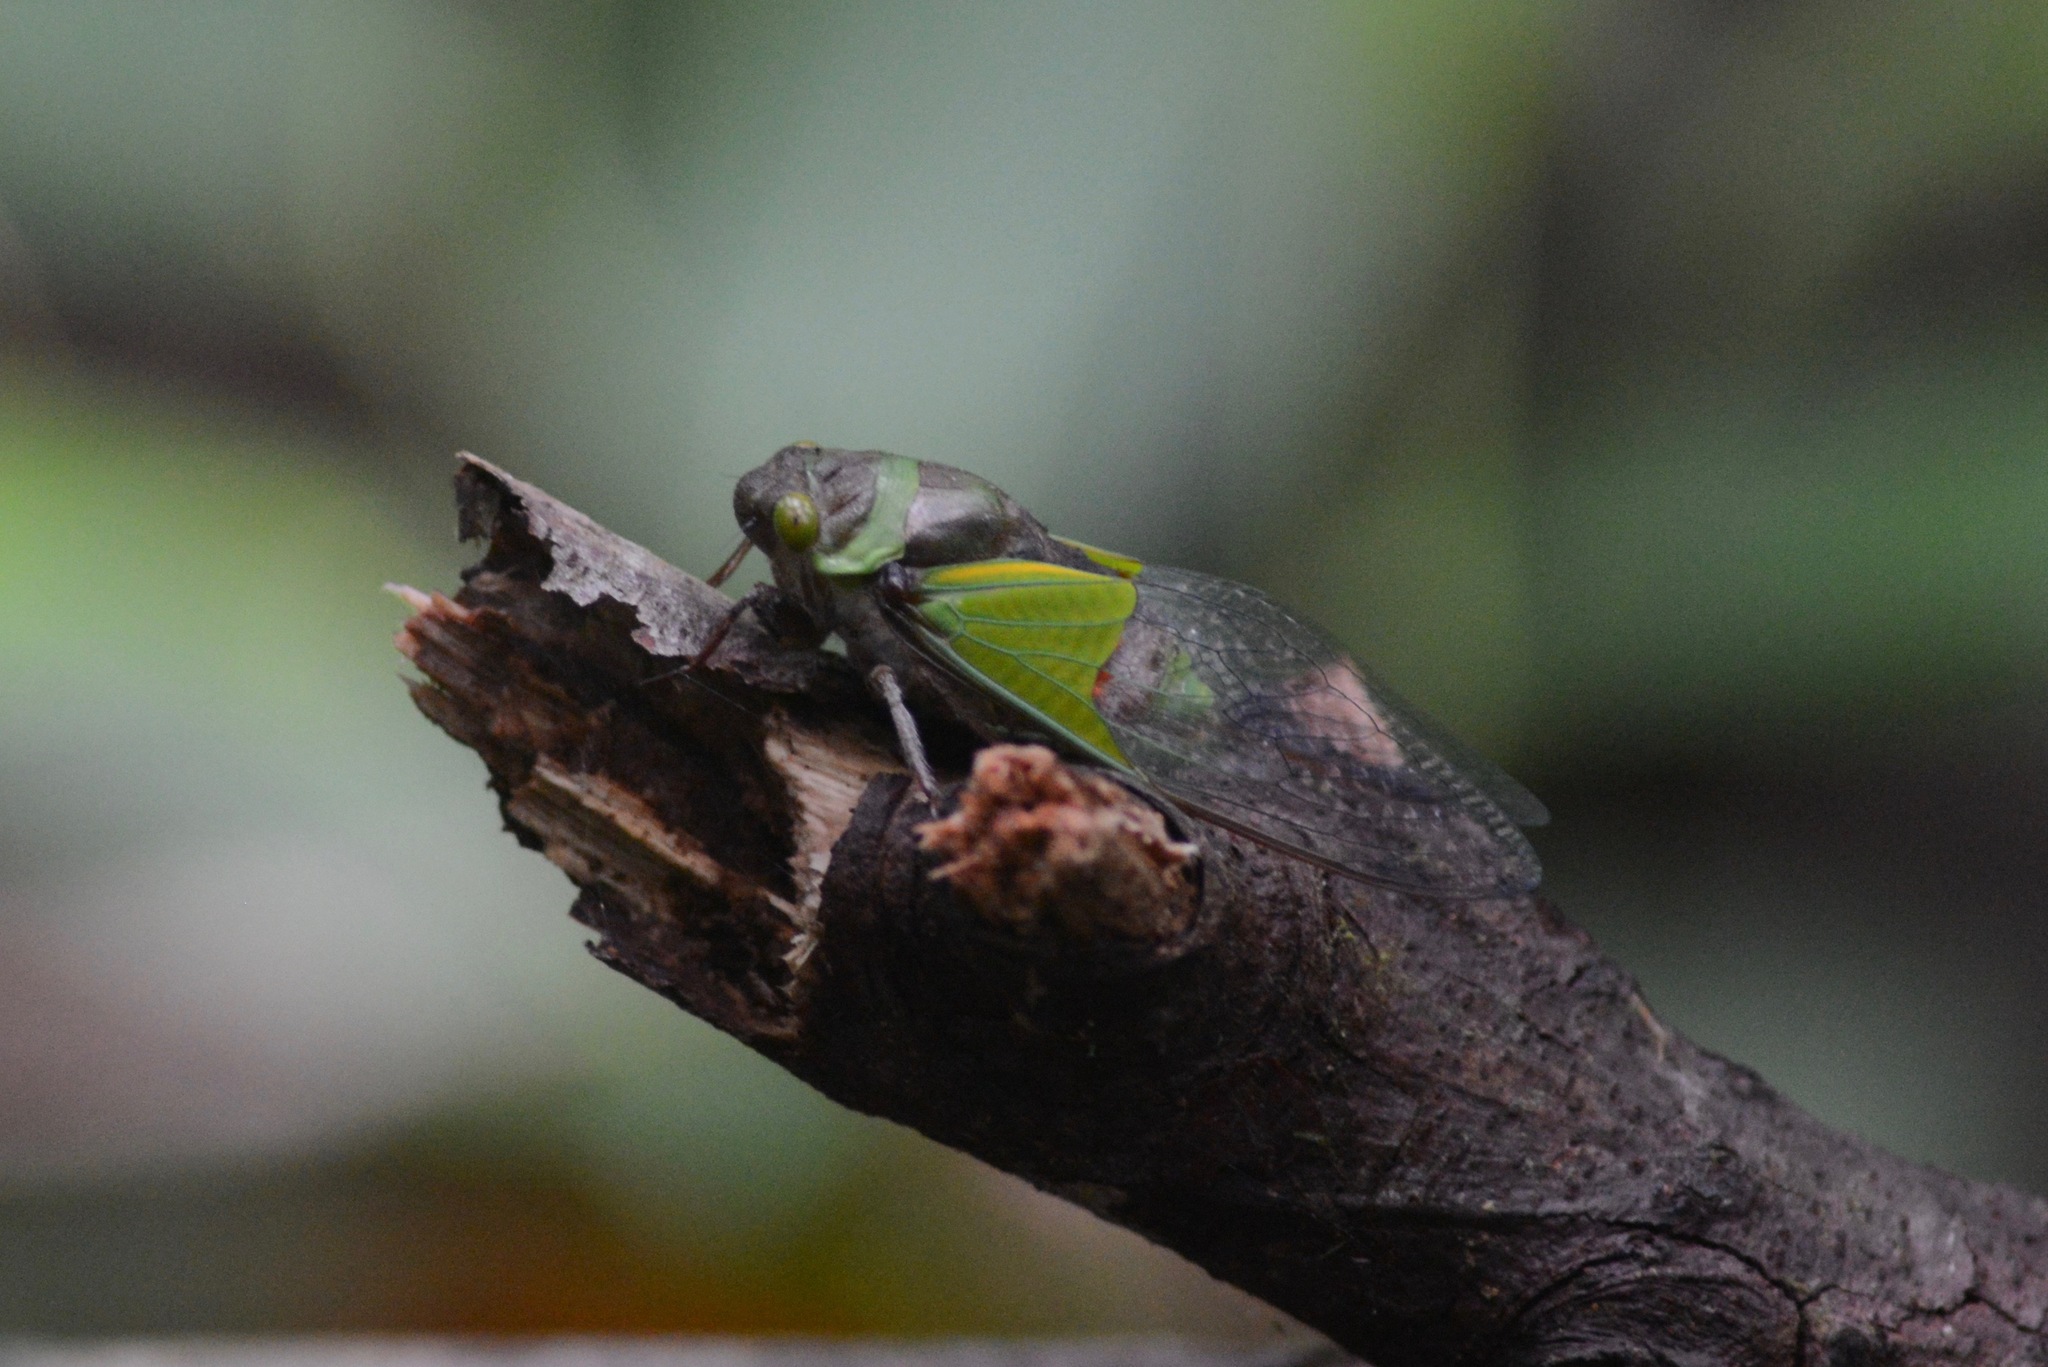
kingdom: Animalia
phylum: Arthropoda
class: Insecta
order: Hemiptera
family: Cicadidae
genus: Hemisciera
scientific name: Hemisciera maculipennis
